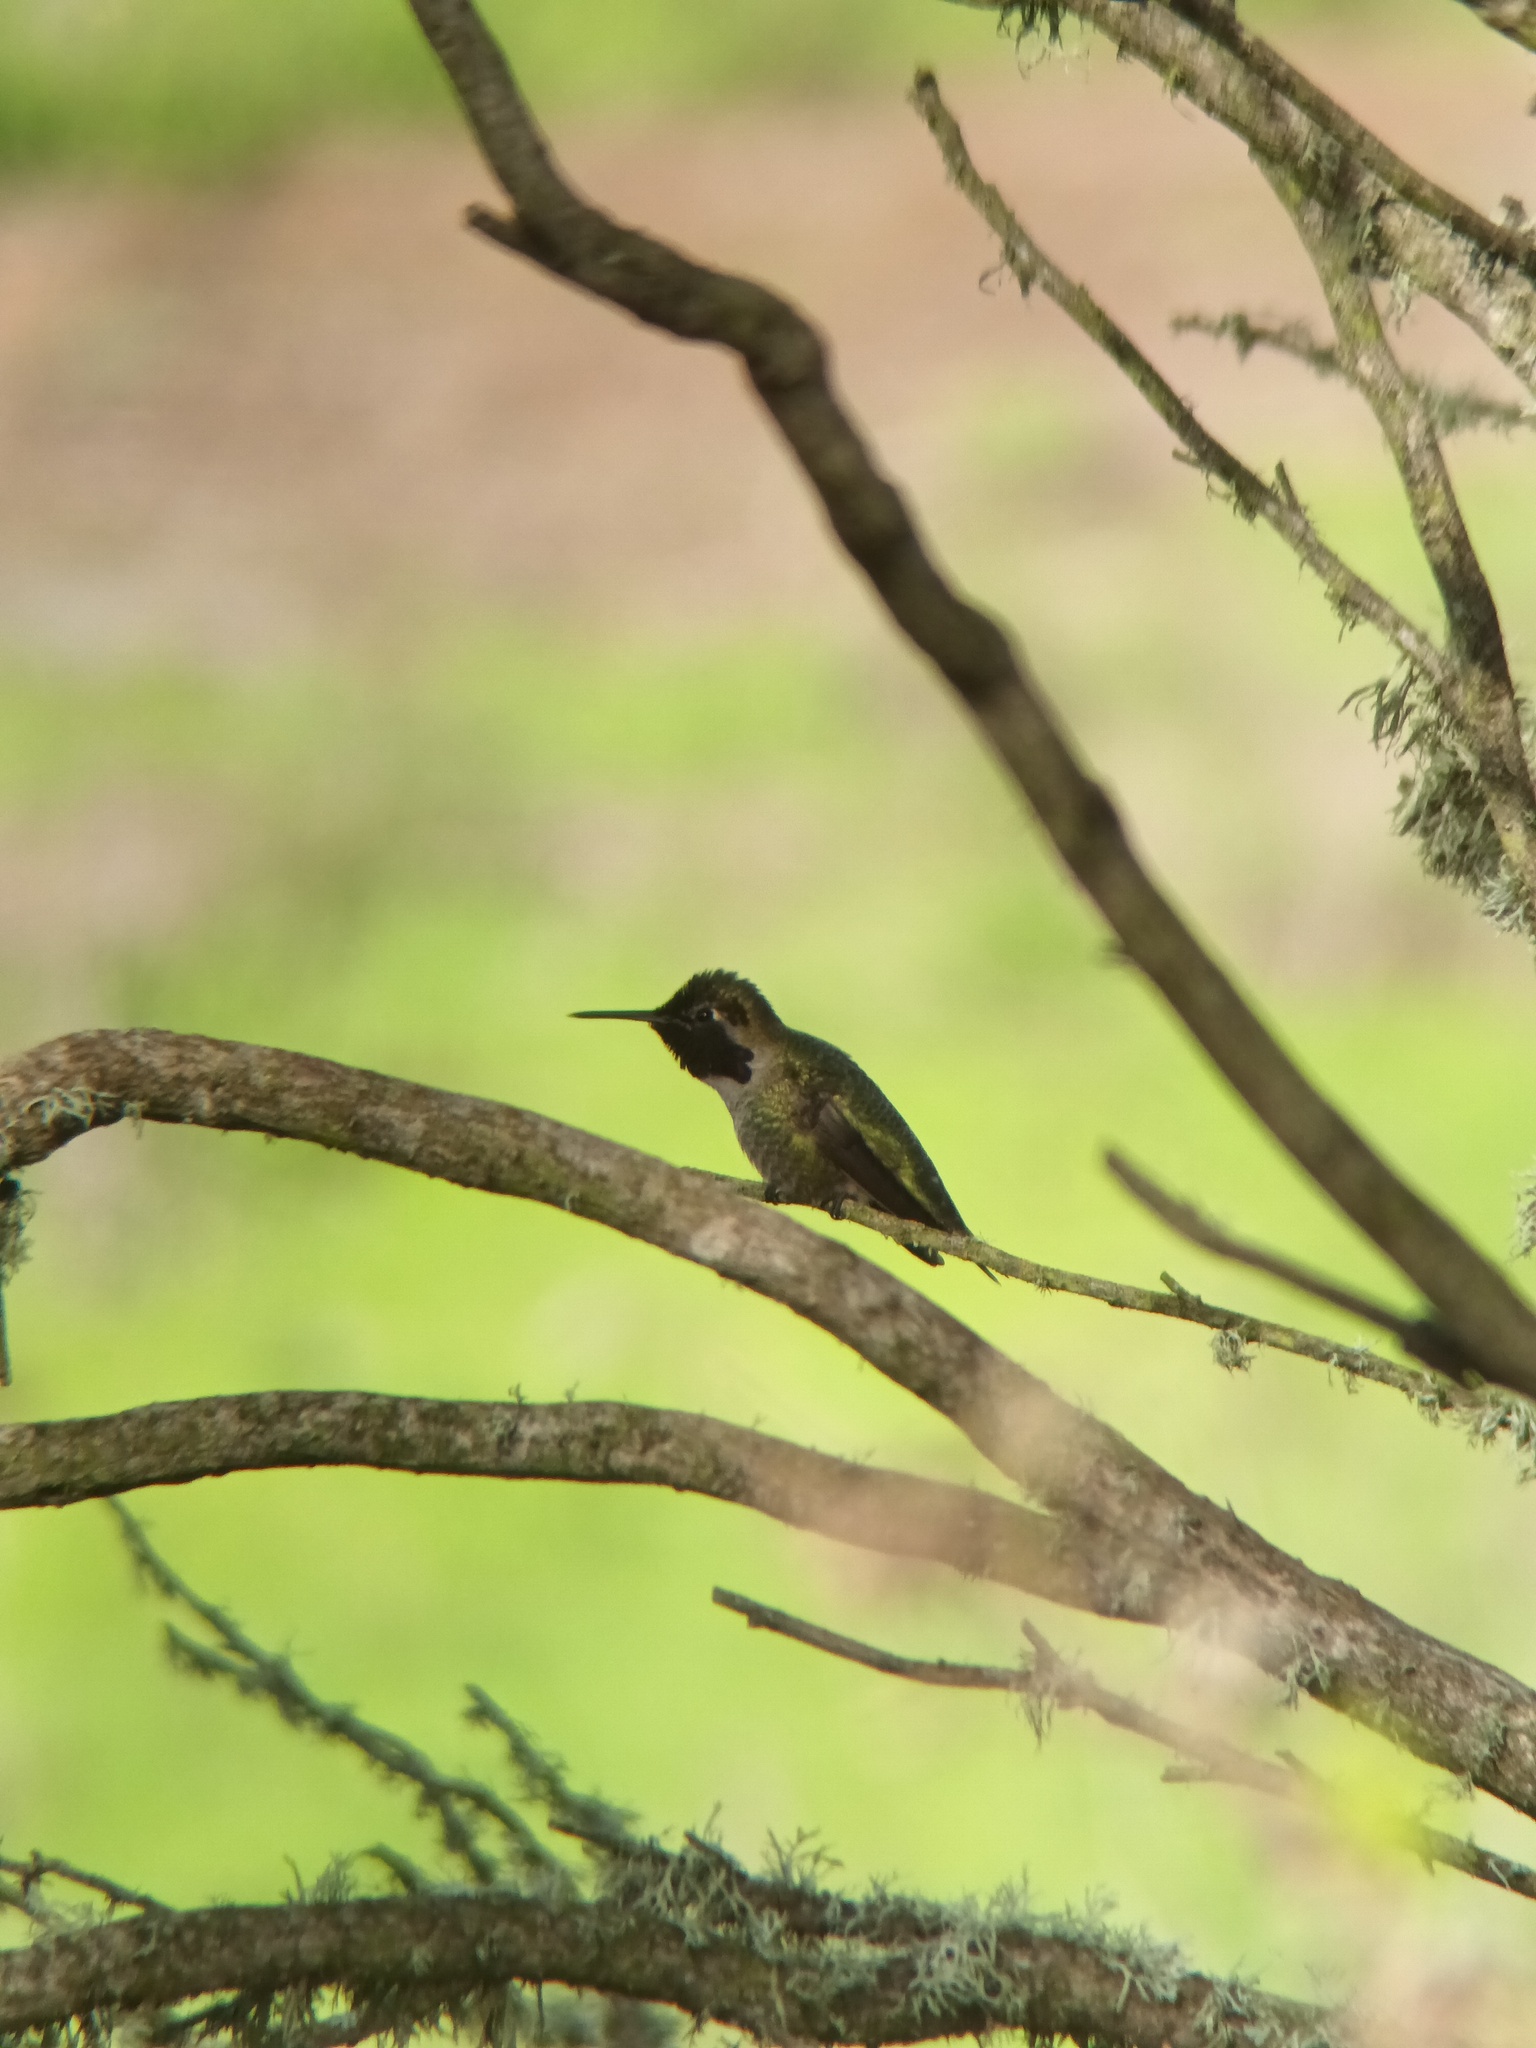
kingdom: Animalia
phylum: Chordata
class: Aves
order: Apodiformes
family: Trochilidae
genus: Calypte
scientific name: Calypte anna
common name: Anna's hummingbird
